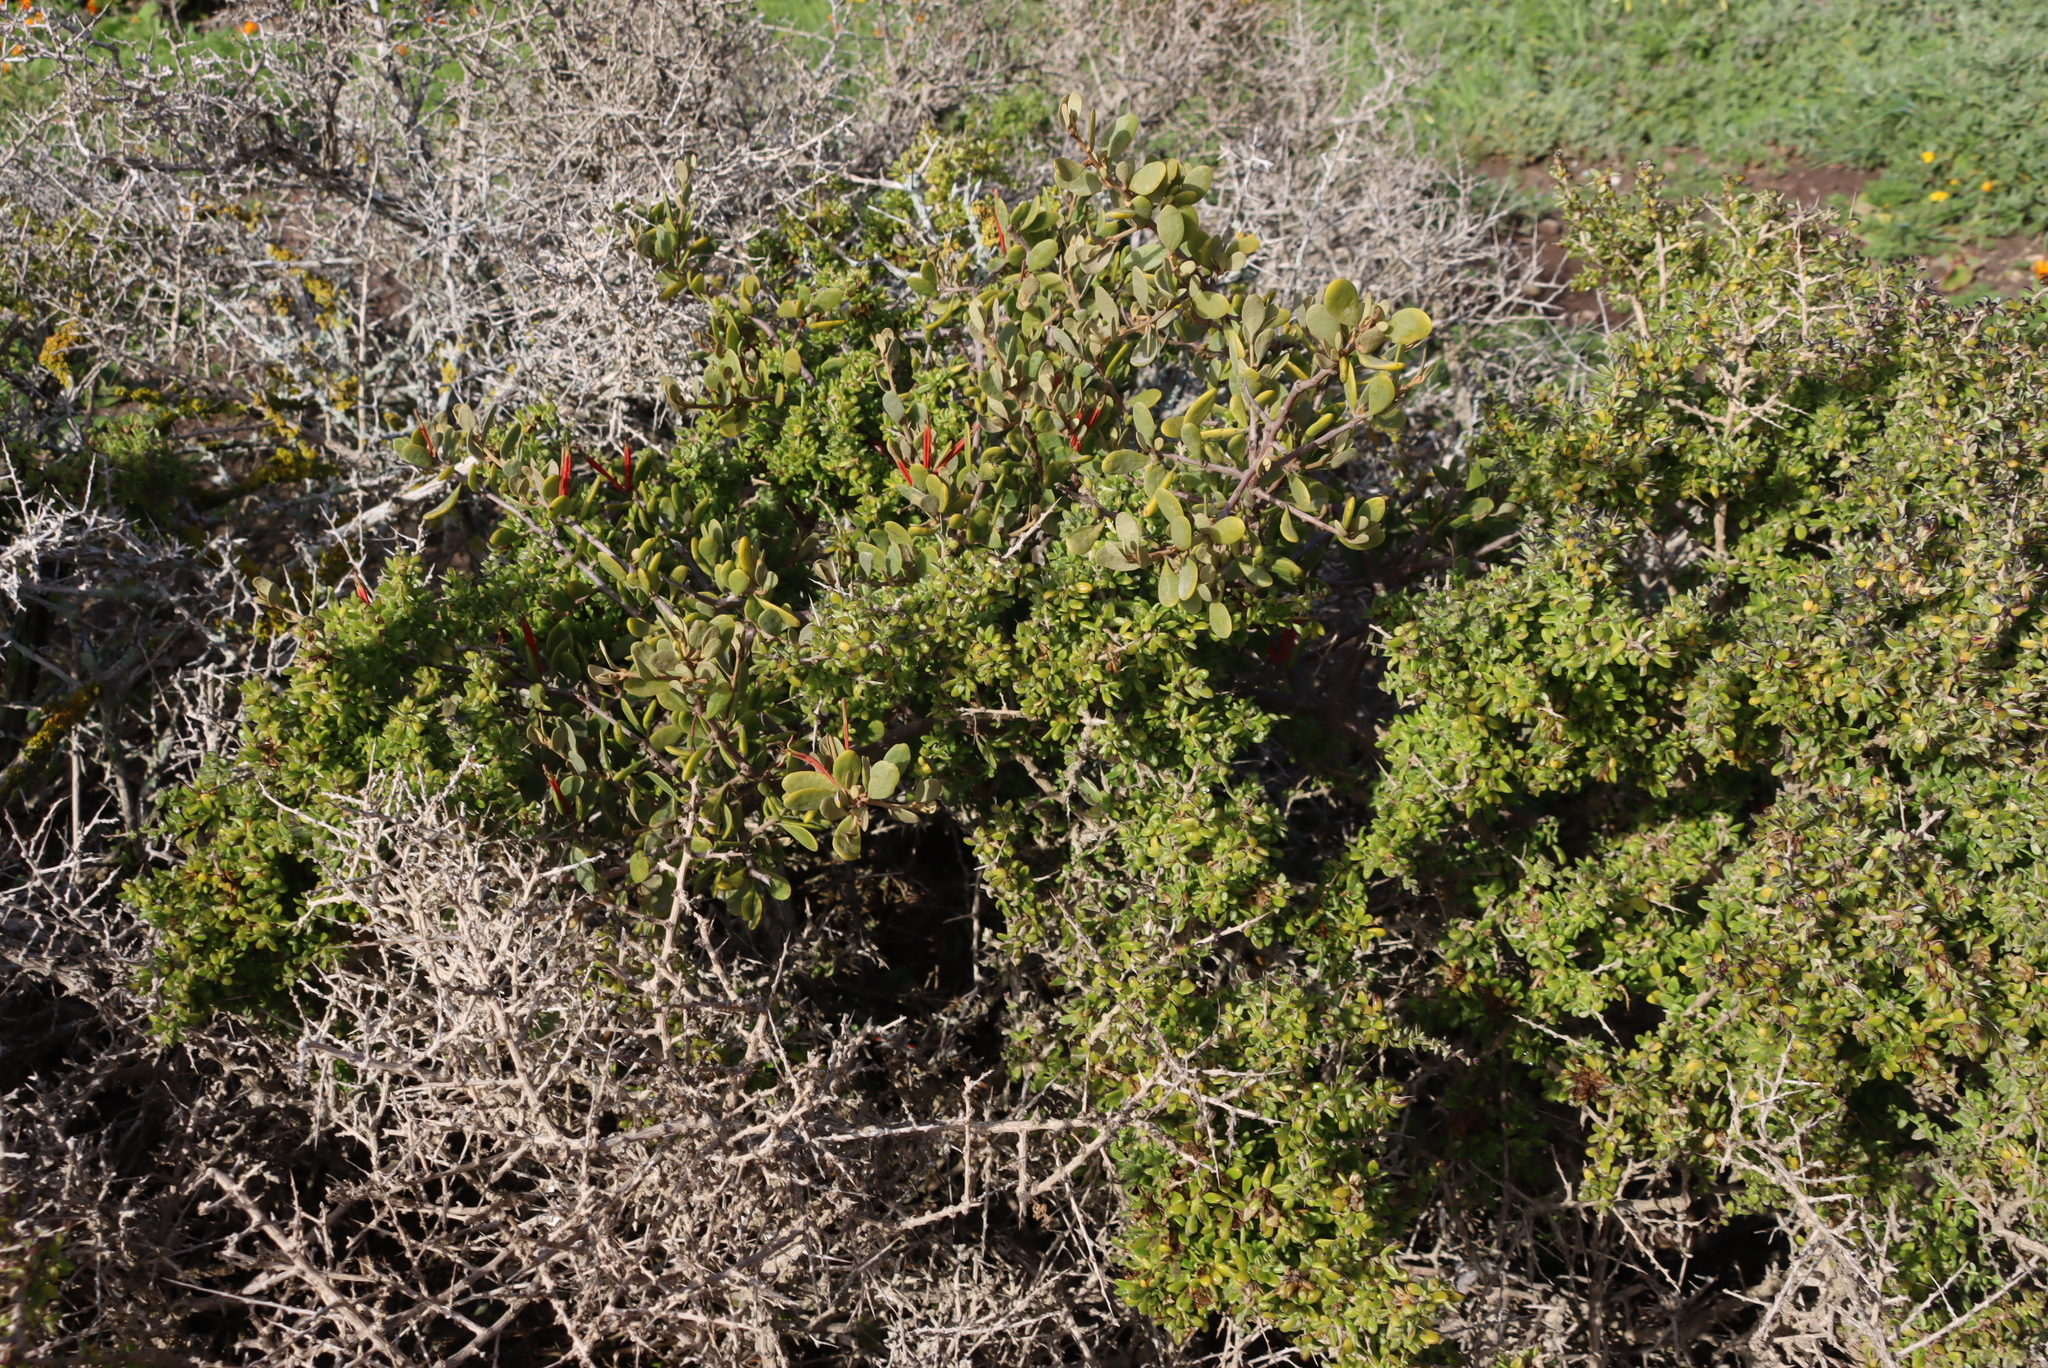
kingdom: Plantae
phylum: Tracheophyta
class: Magnoliopsida
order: Santalales
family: Loranthaceae
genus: Septulina
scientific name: Septulina glauca
